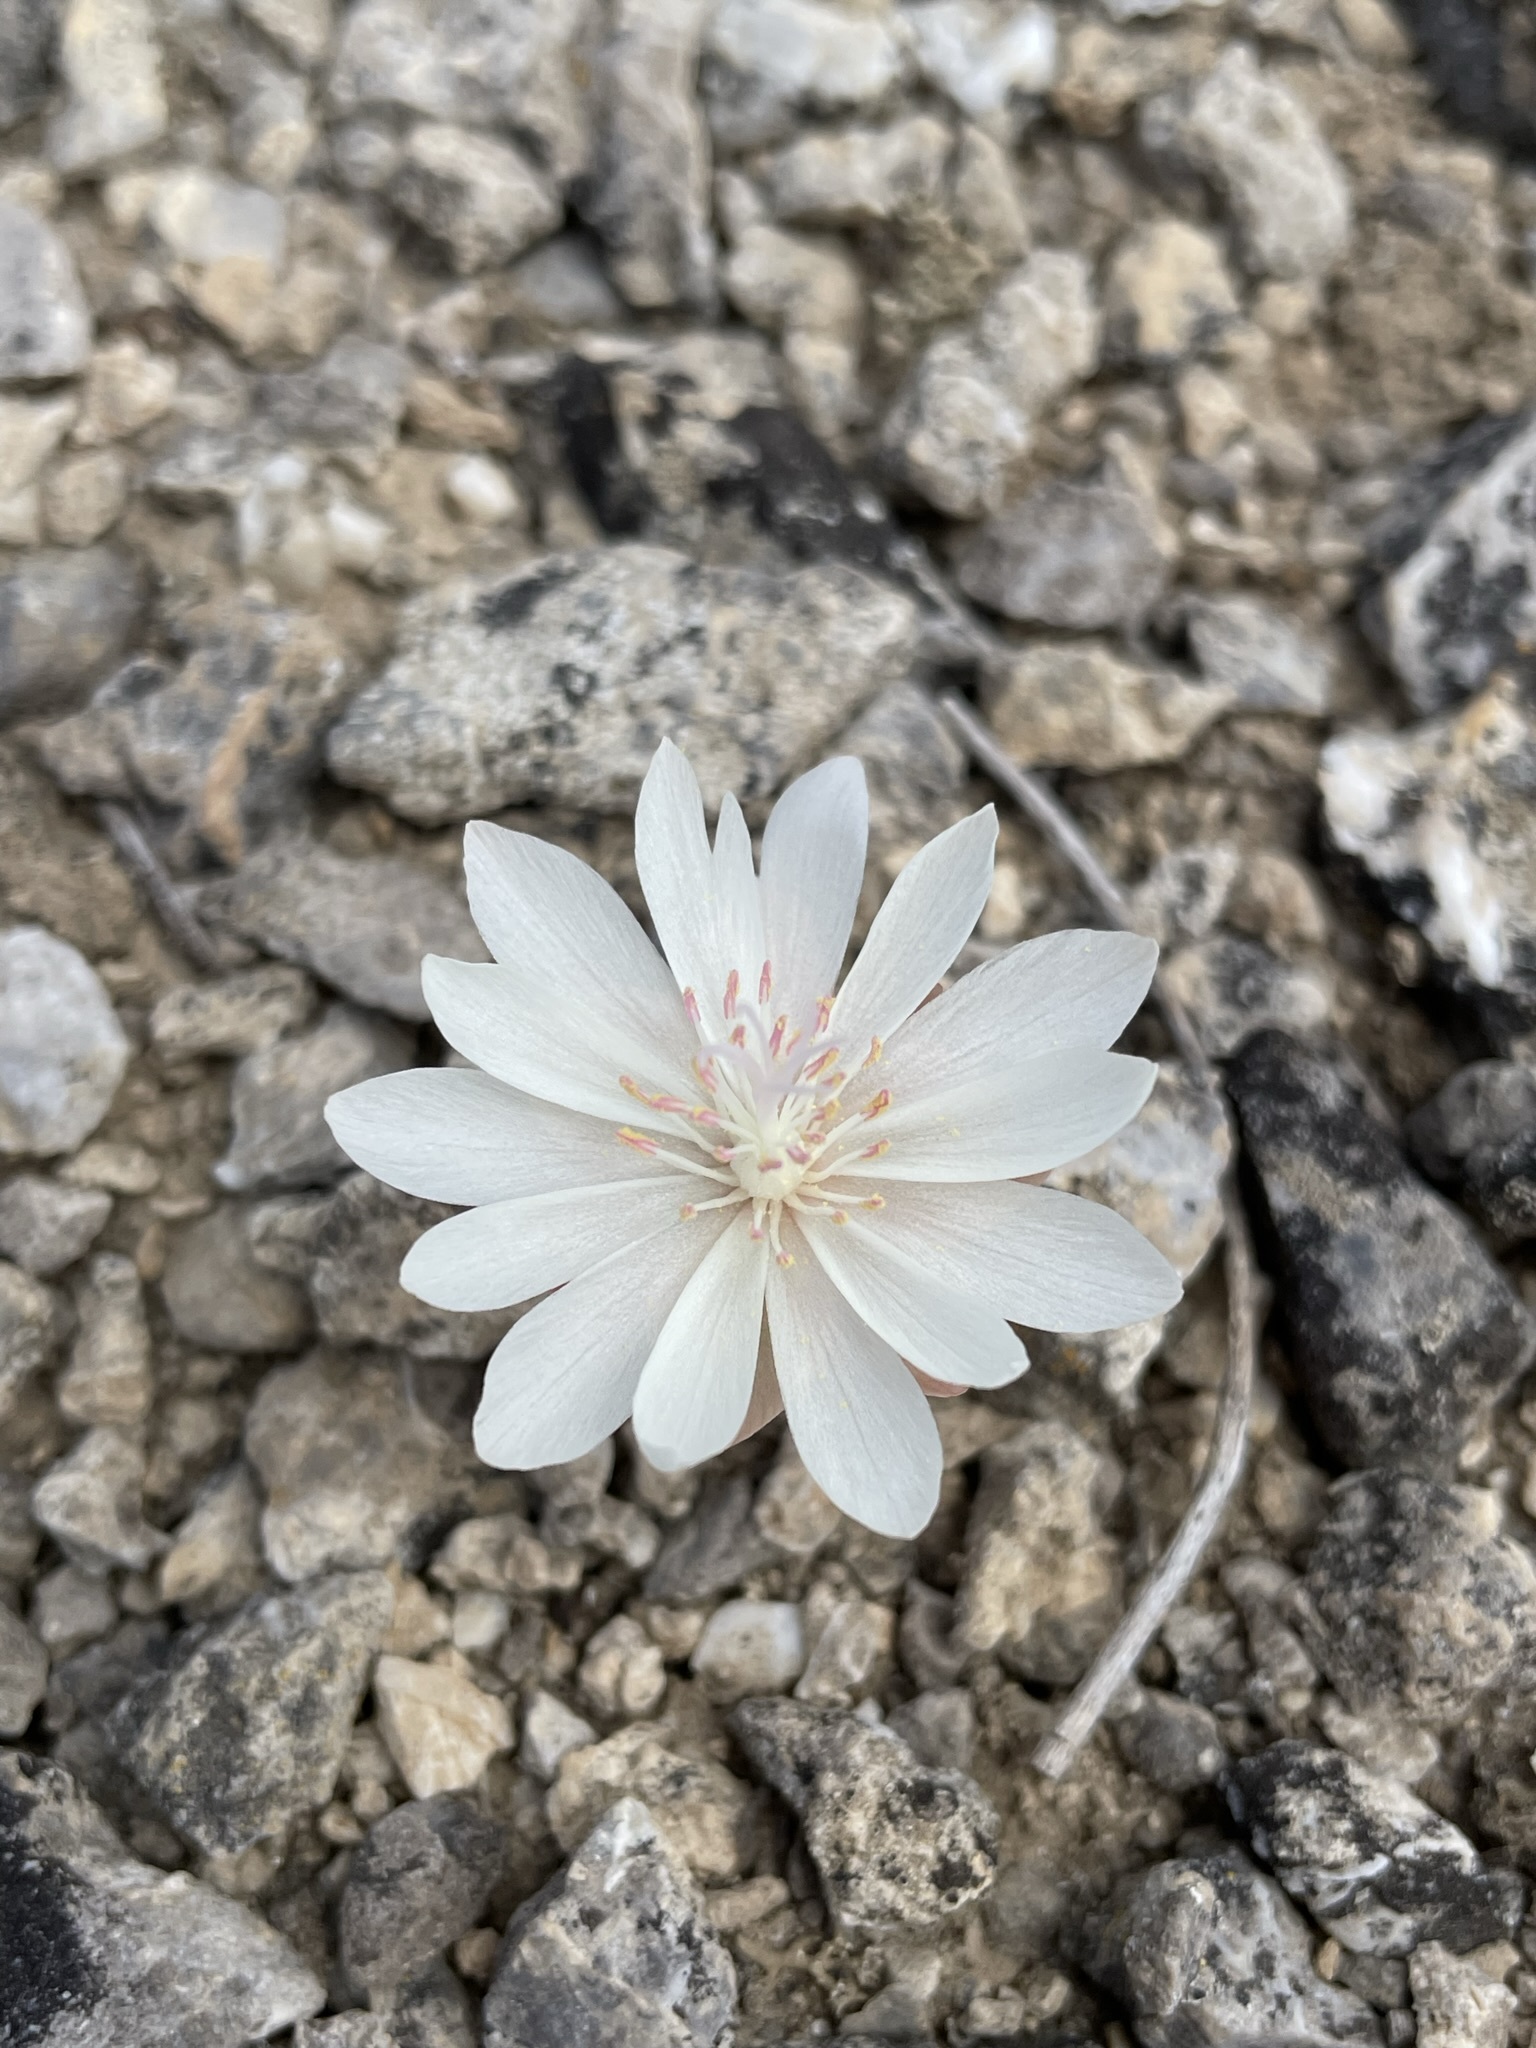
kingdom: Plantae
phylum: Tracheophyta
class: Magnoliopsida
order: Caryophyllales
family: Montiaceae
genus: Lewisia
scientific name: Lewisia rediviva
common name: Bitter-root
